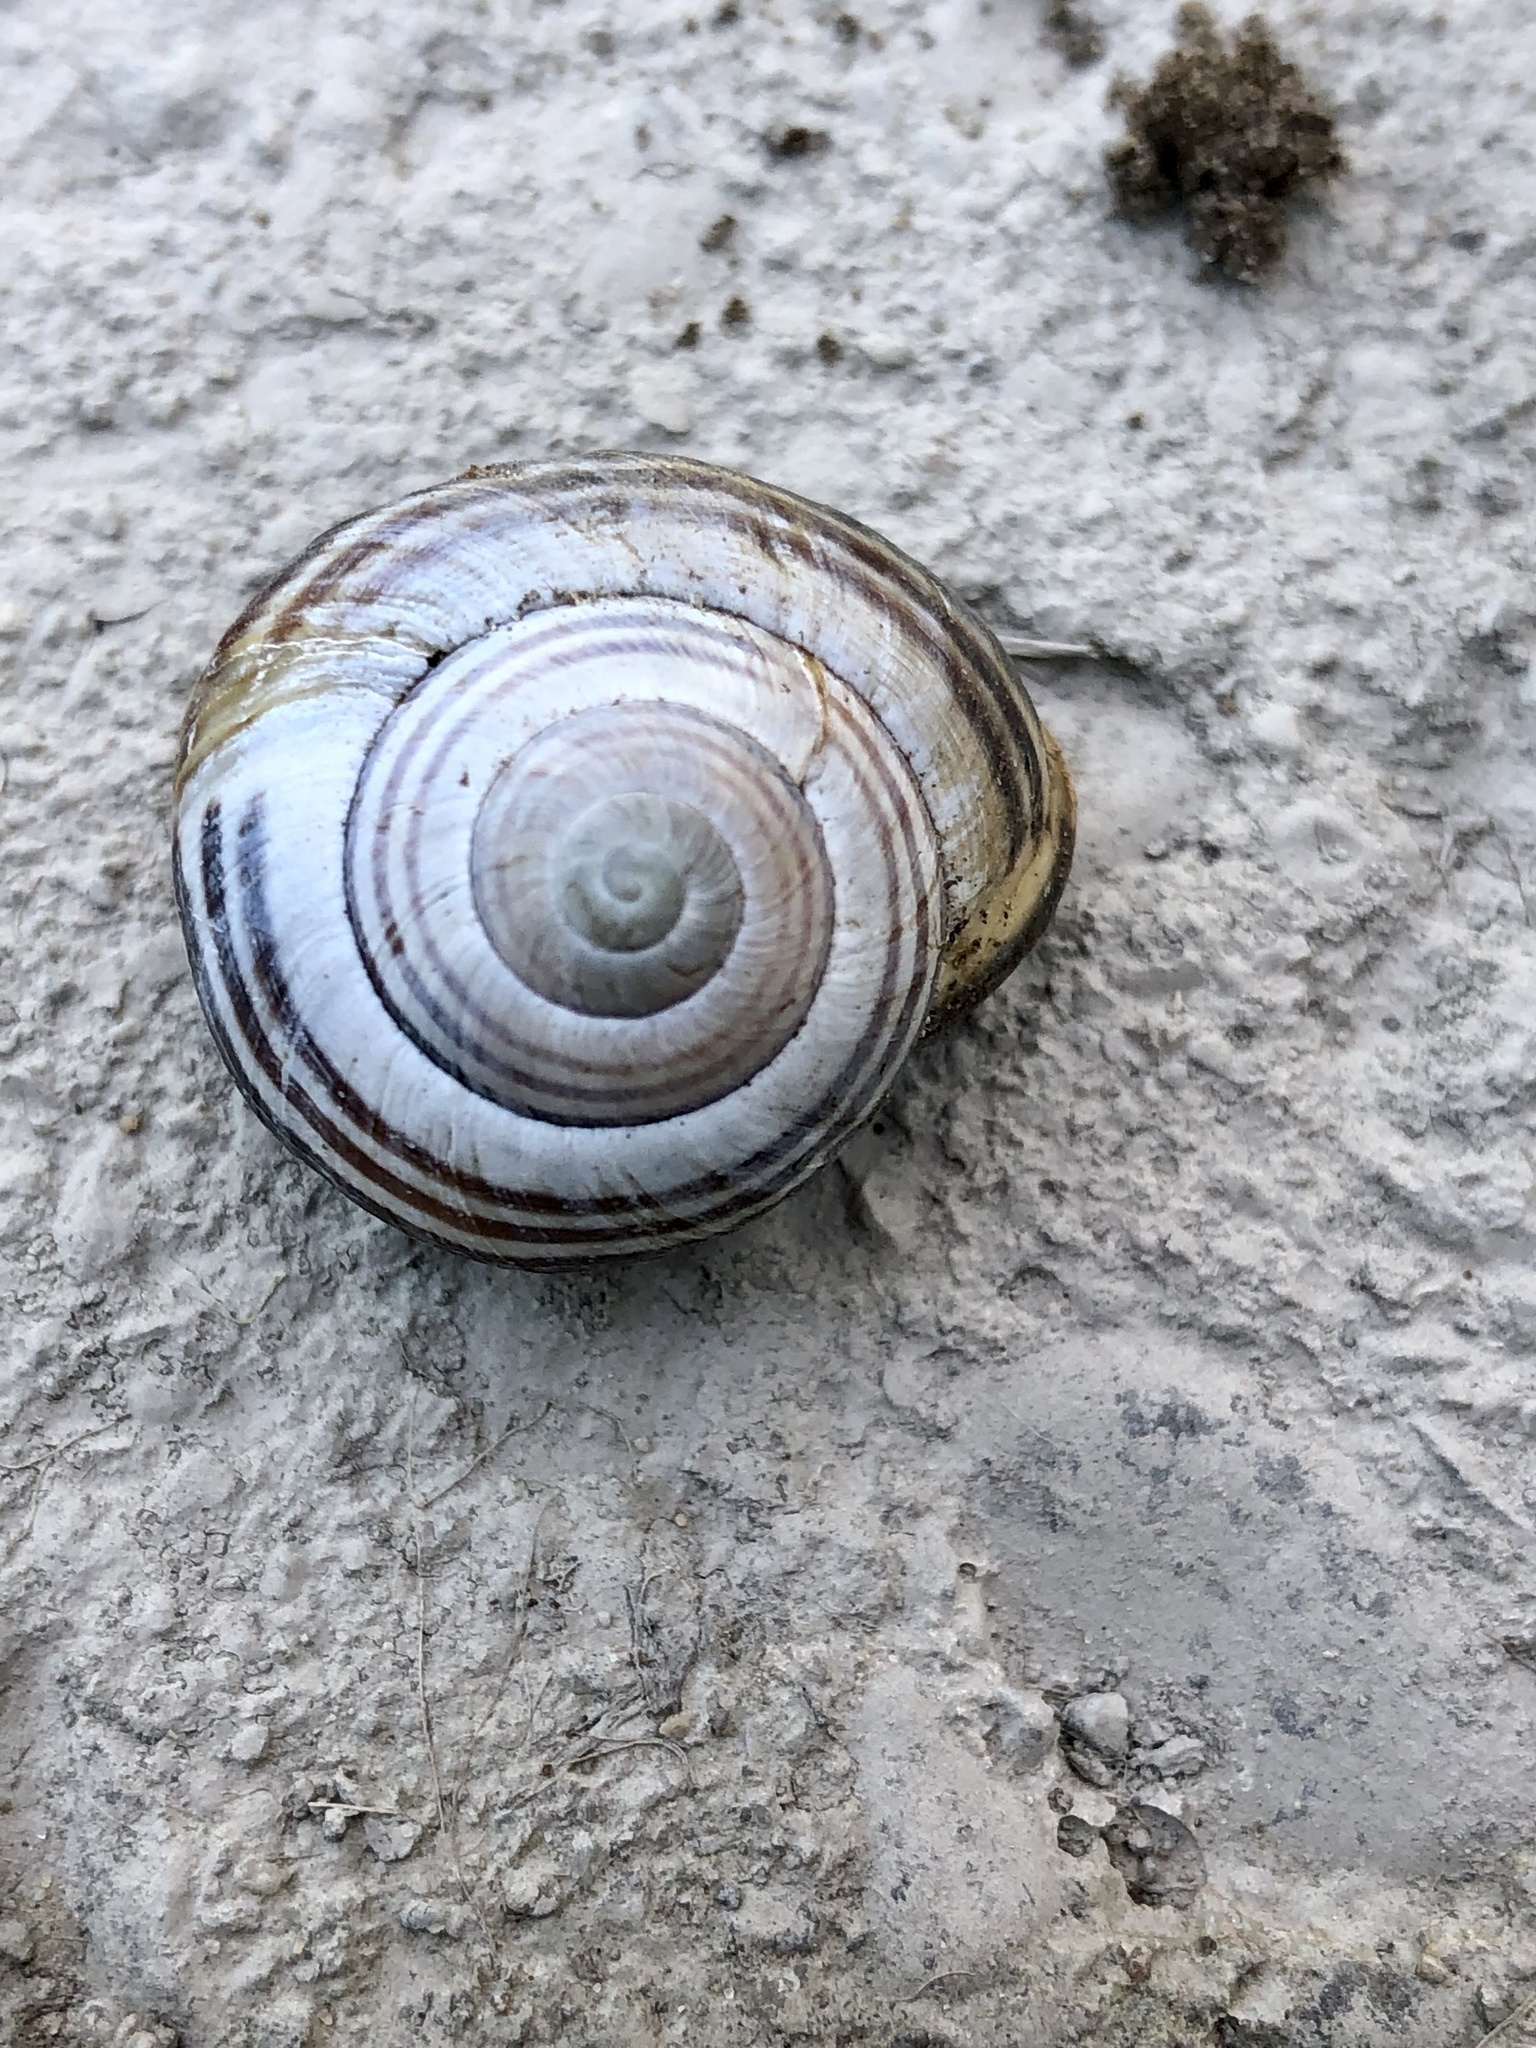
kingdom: Animalia
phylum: Mollusca
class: Gastropoda
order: Stylommatophora
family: Helicidae
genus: Cepaea
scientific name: Cepaea nemoralis
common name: Grovesnail
